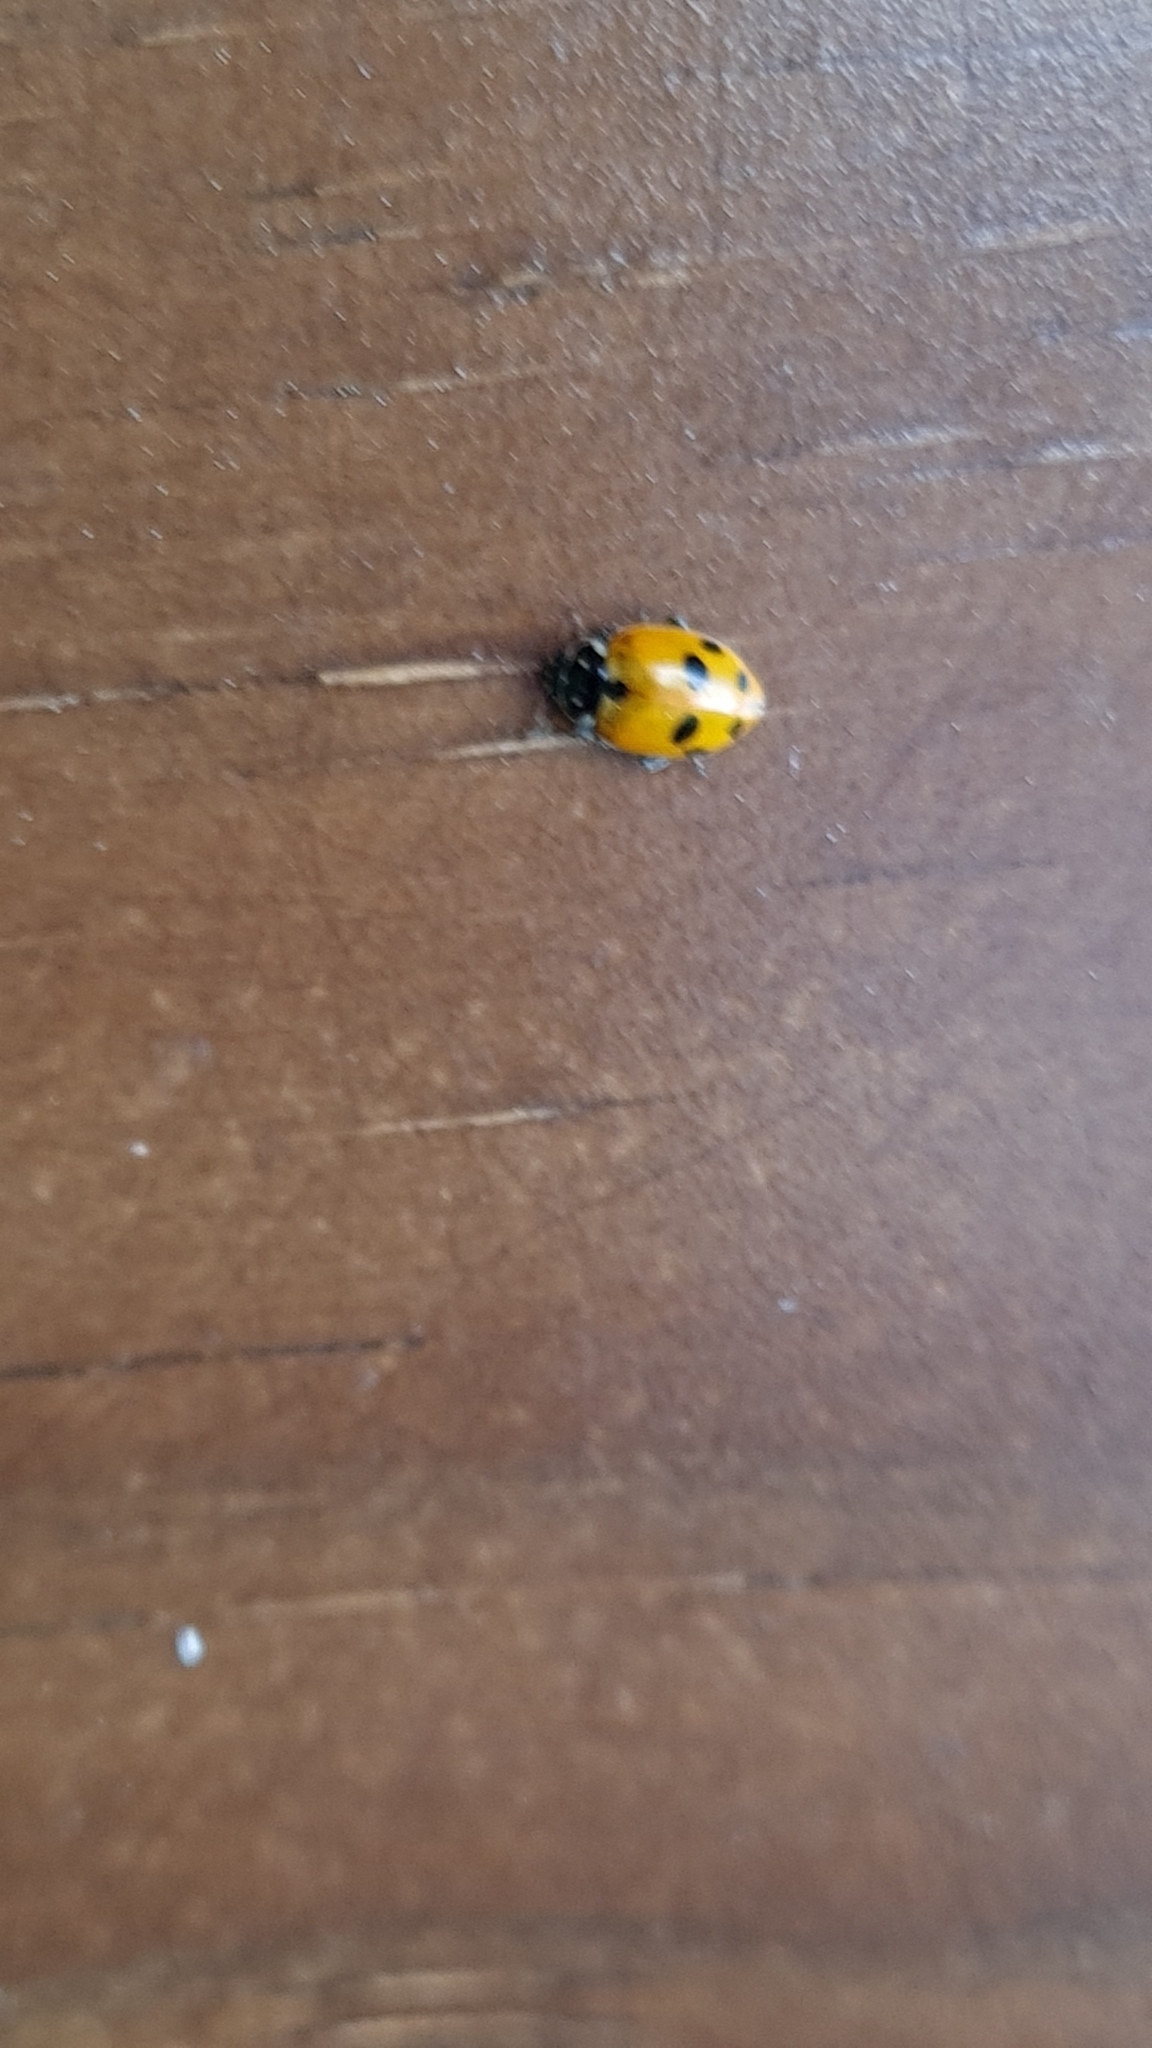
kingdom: Animalia
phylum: Arthropoda
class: Insecta
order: Coleoptera
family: Coccinellidae
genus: Hippodamia
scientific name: Hippodamia variegata
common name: Ladybird beetle
